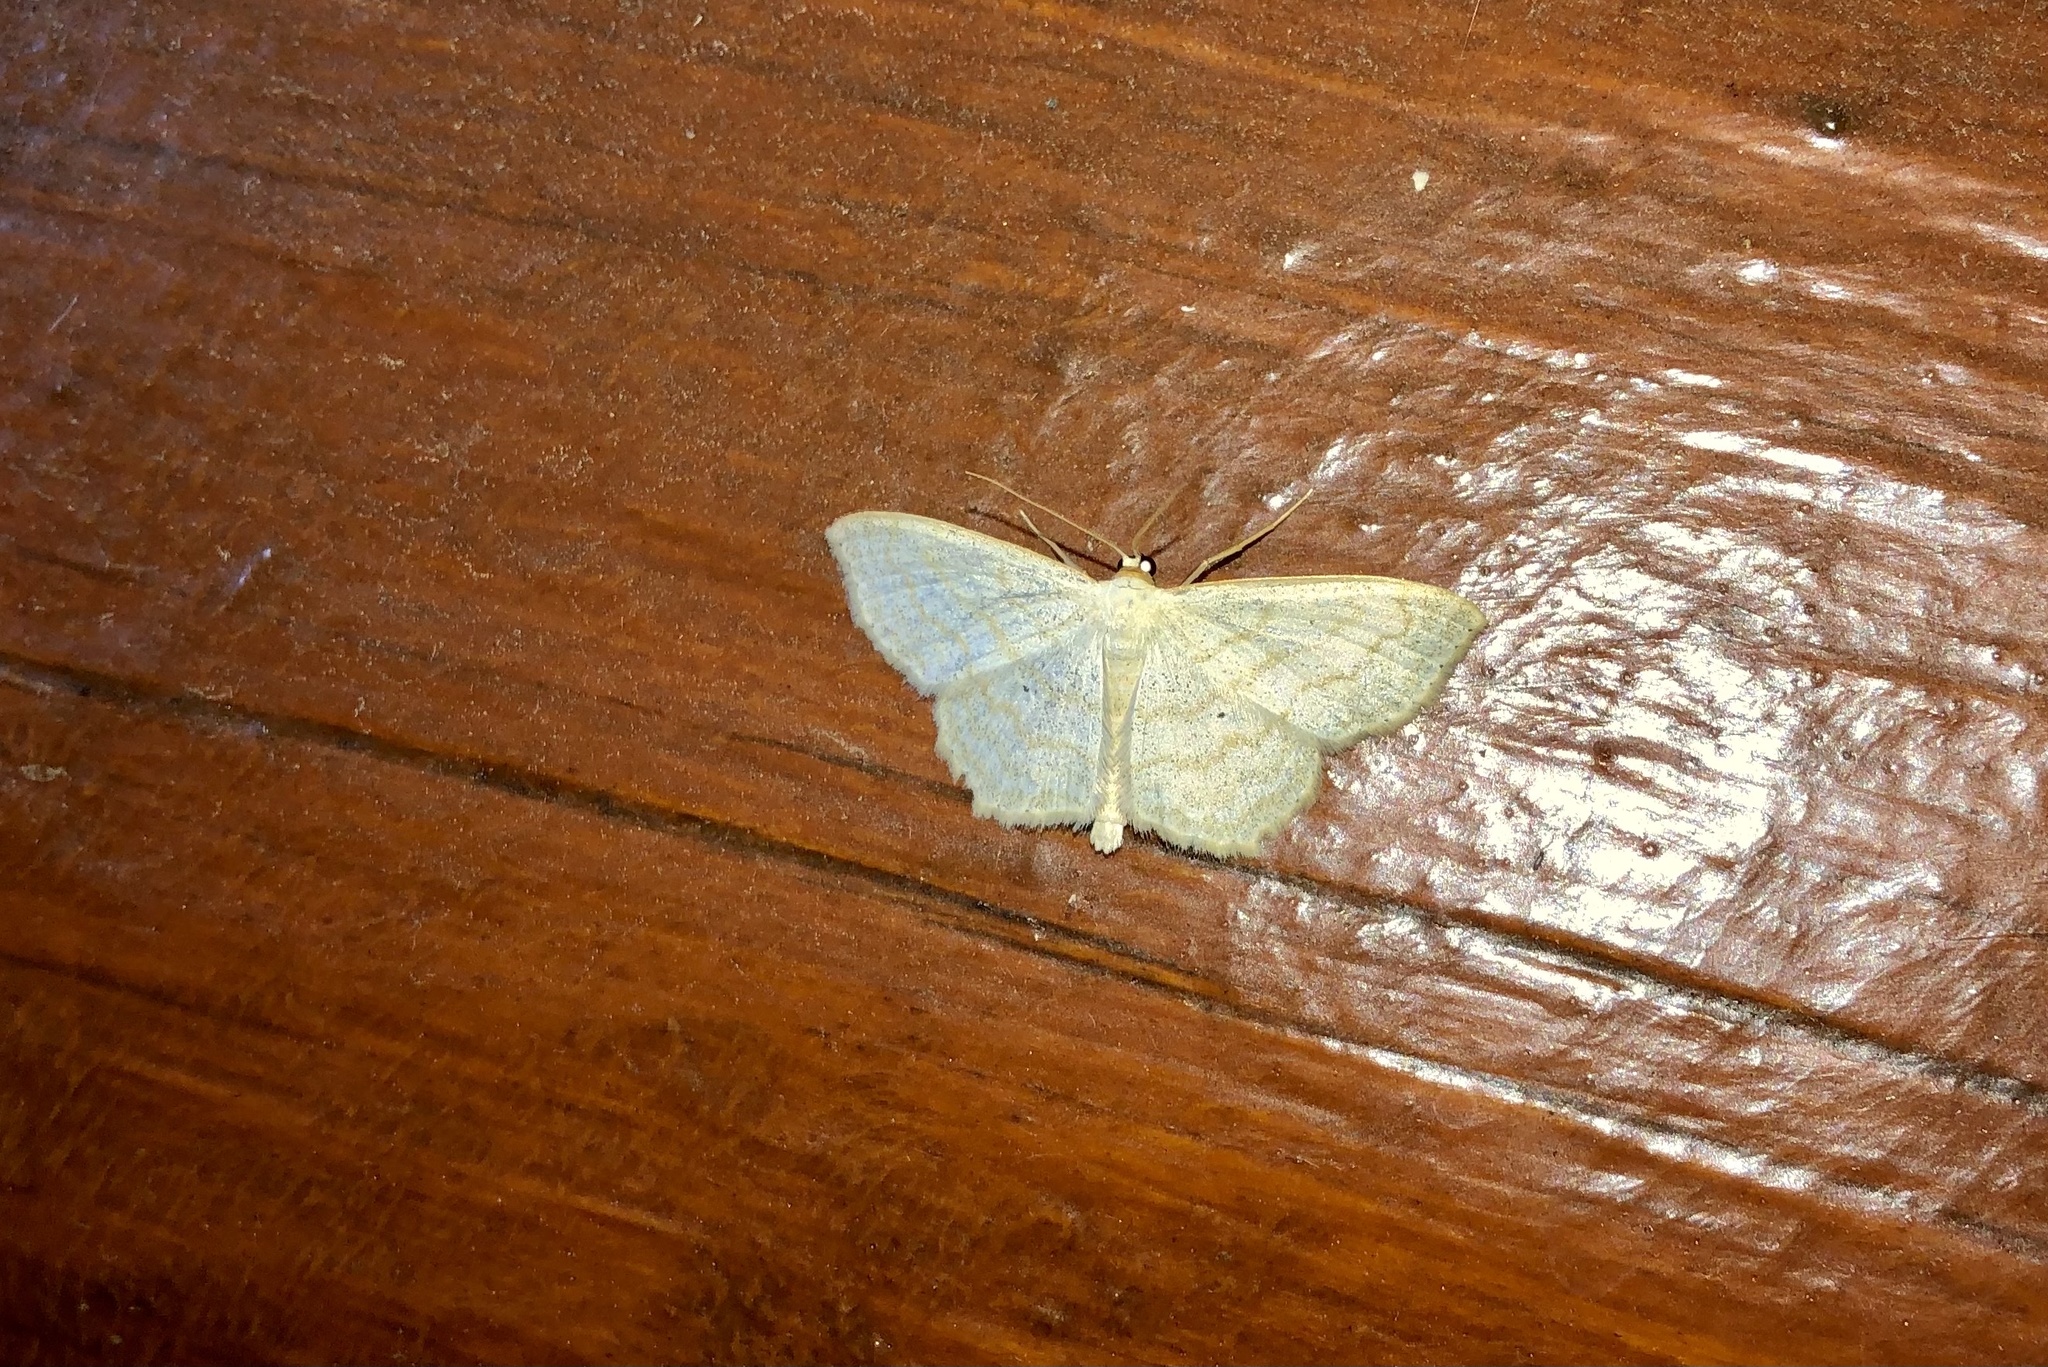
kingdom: Animalia
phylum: Arthropoda
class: Insecta
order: Lepidoptera
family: Geometridae
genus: Scopula
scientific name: Scopula limboundata
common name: Large lace border
